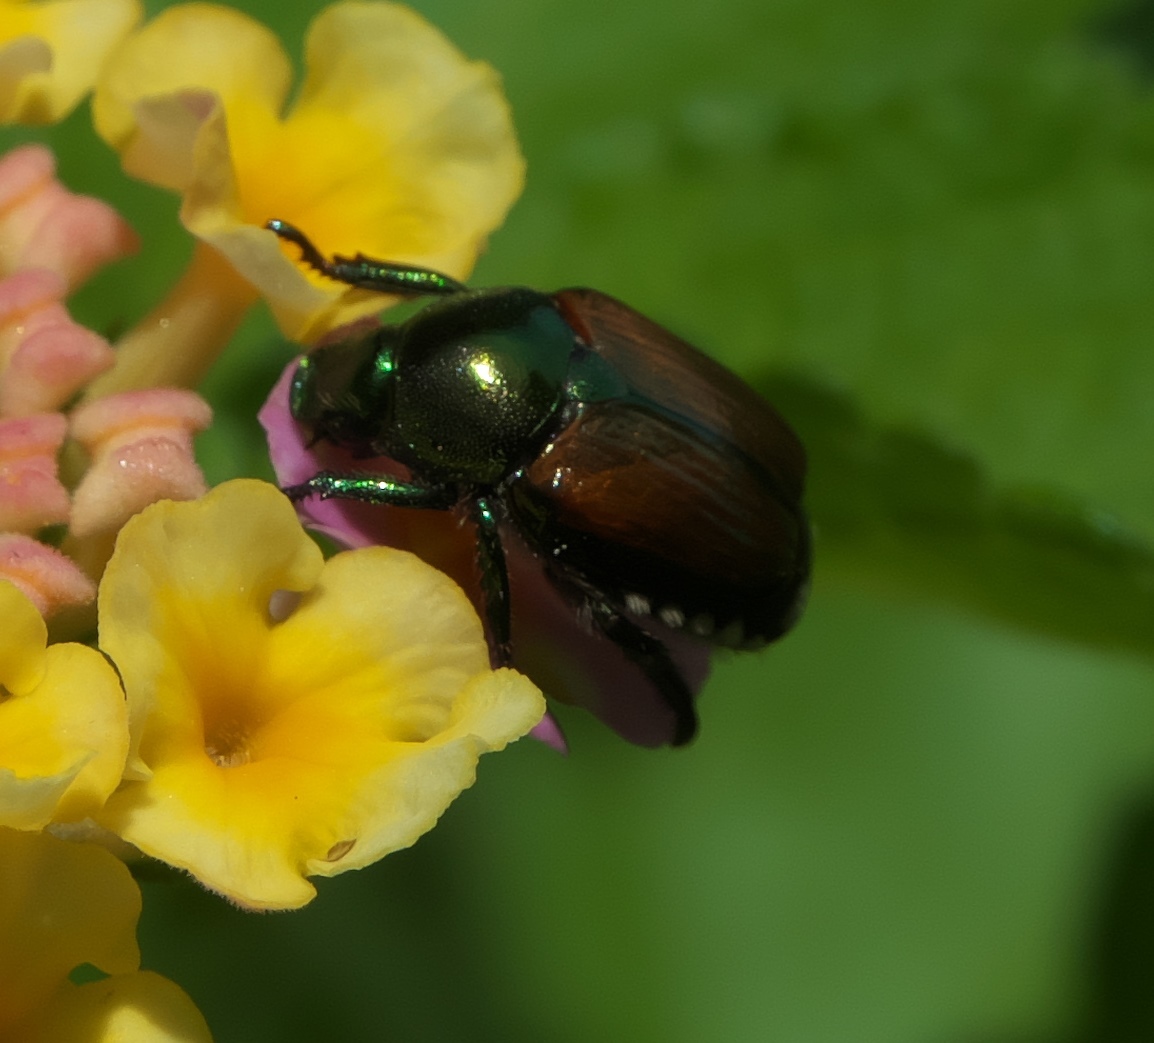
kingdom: Animalia
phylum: Arthropoda
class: Insecta
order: Coleoptera
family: Scarabaeidae
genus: Popillia
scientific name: Popillia japonica
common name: Japanese beetle
